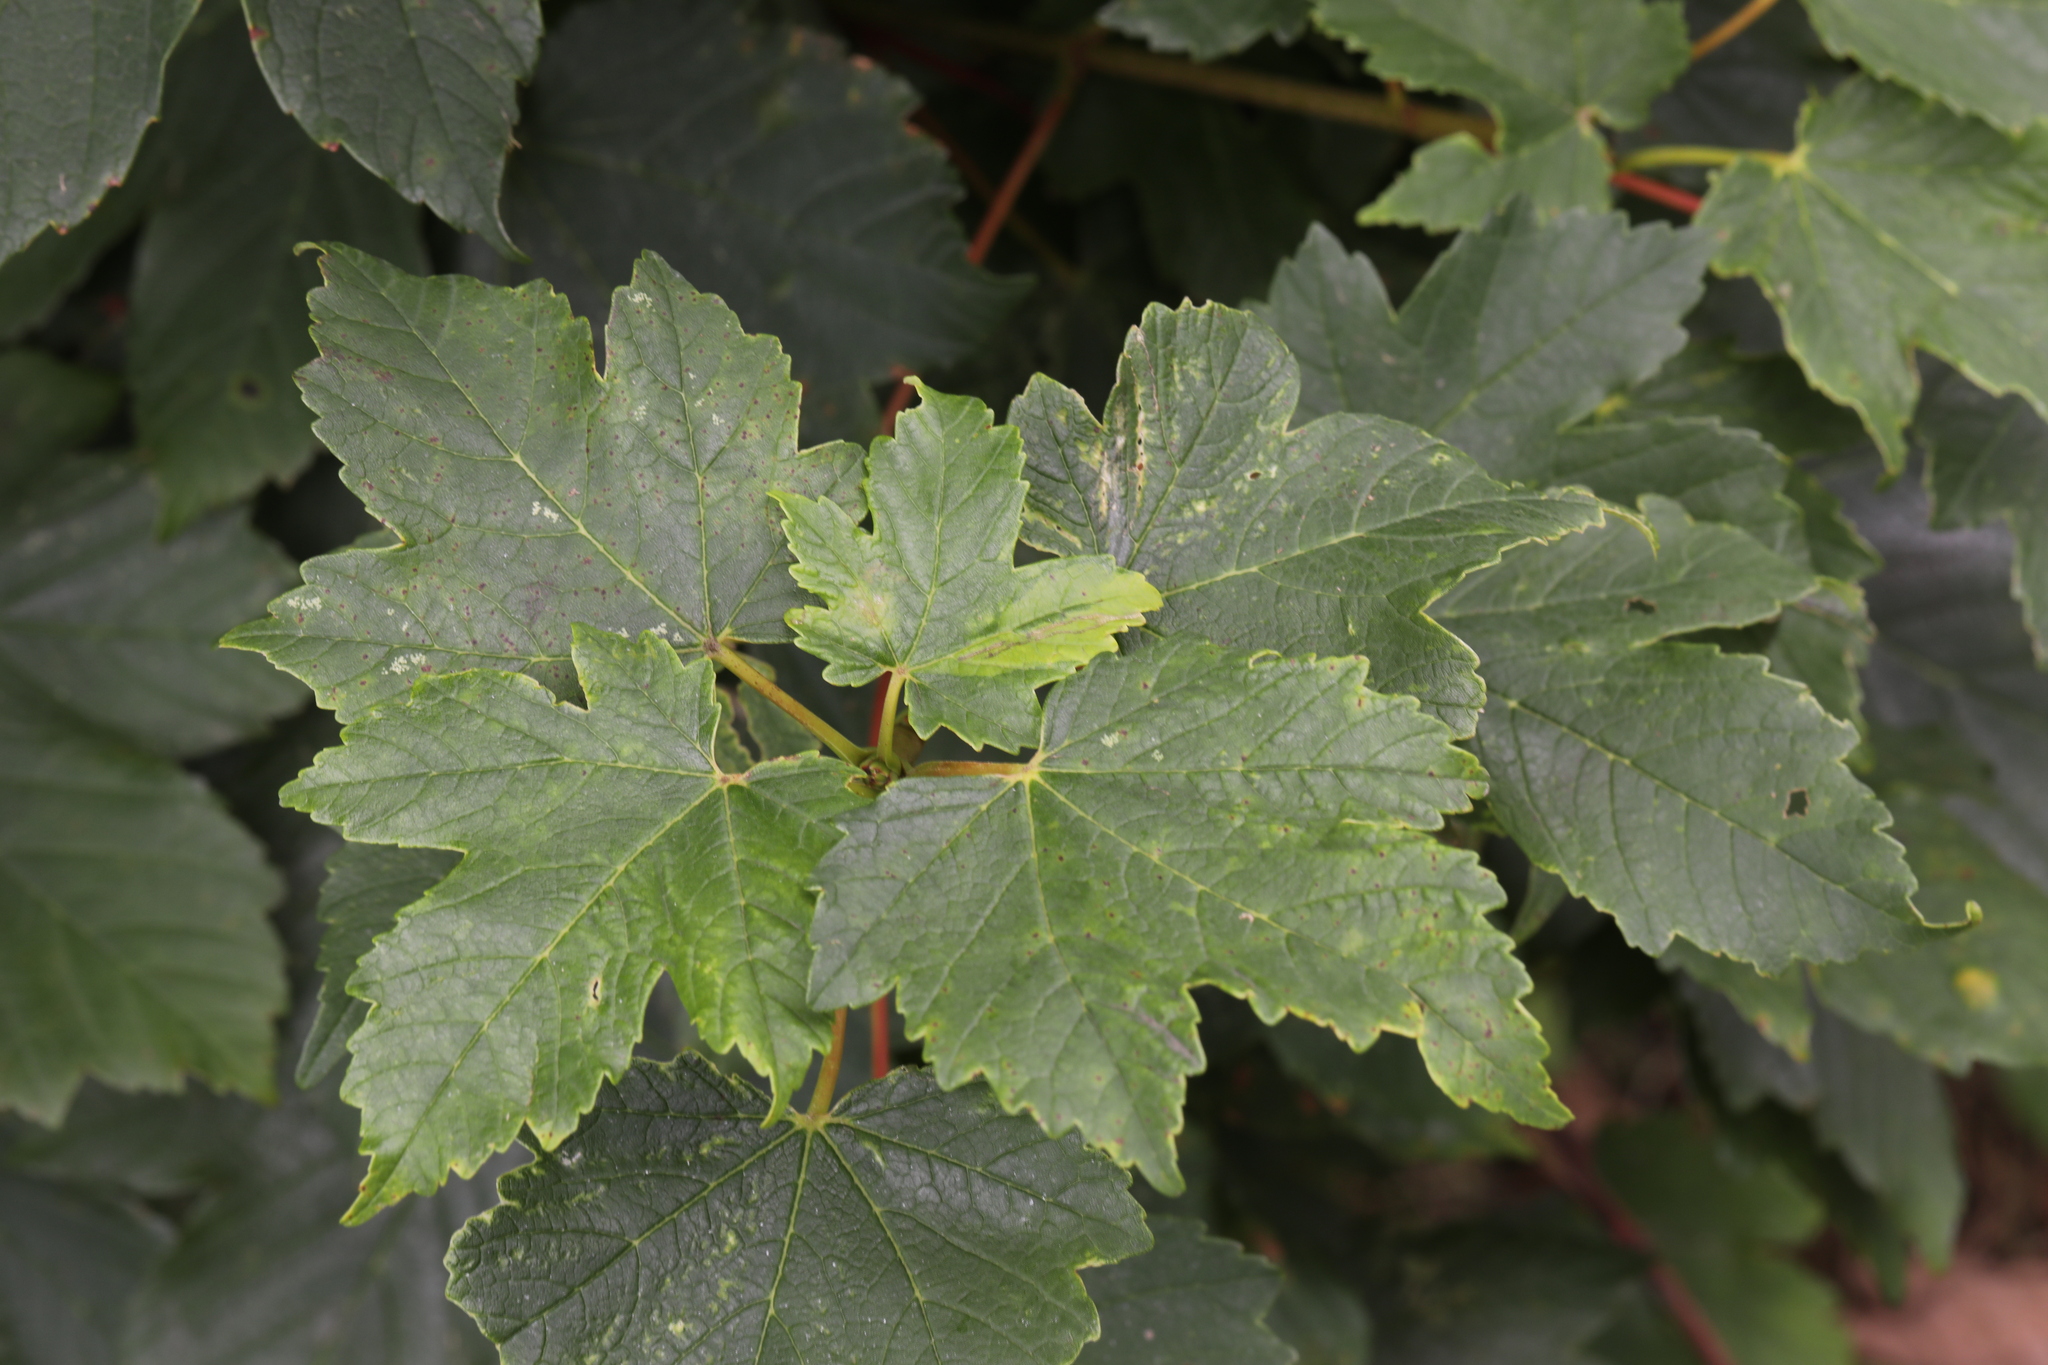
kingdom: Plantae
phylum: Tracheophyta
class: Magnoliopsida
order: Sapindales
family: Sapindaceae
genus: Acer
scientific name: Acer pseudoplatanus
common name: Sycamore
